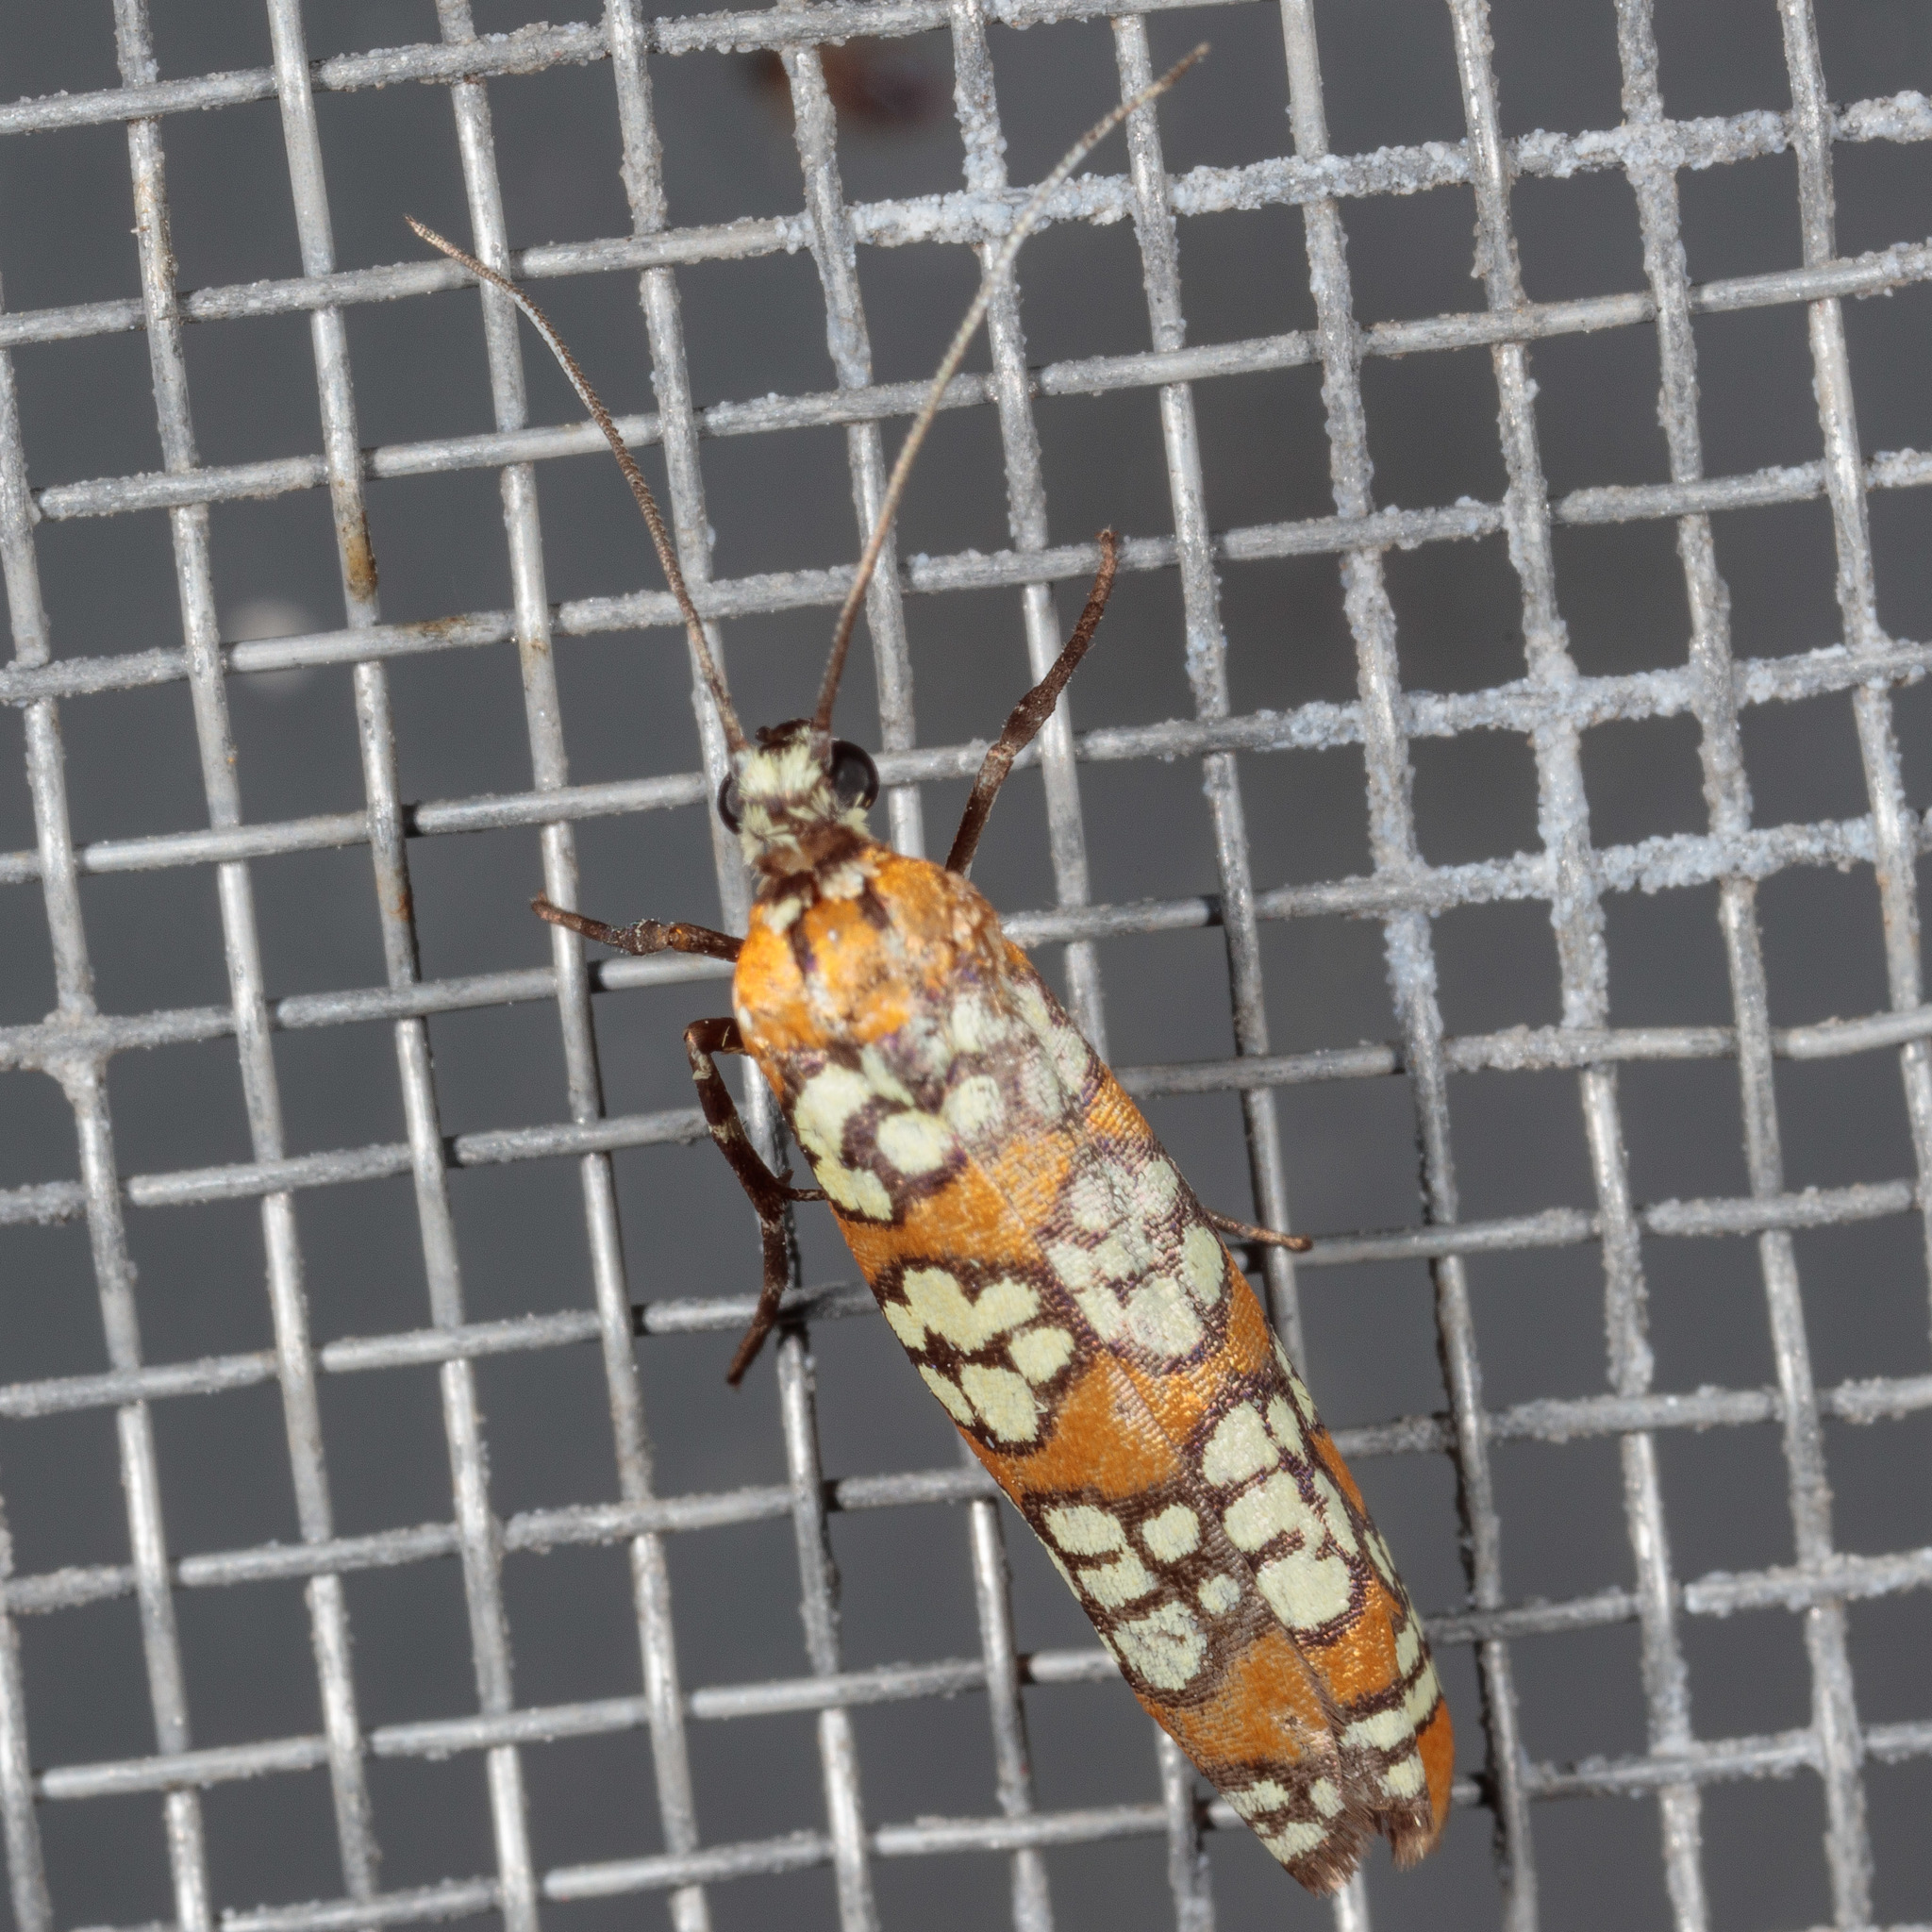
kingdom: Animalia
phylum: Arthropoda
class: Insecta
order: Lepidoptera
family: Attevidae
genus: Atteva
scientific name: Atteva punctella
